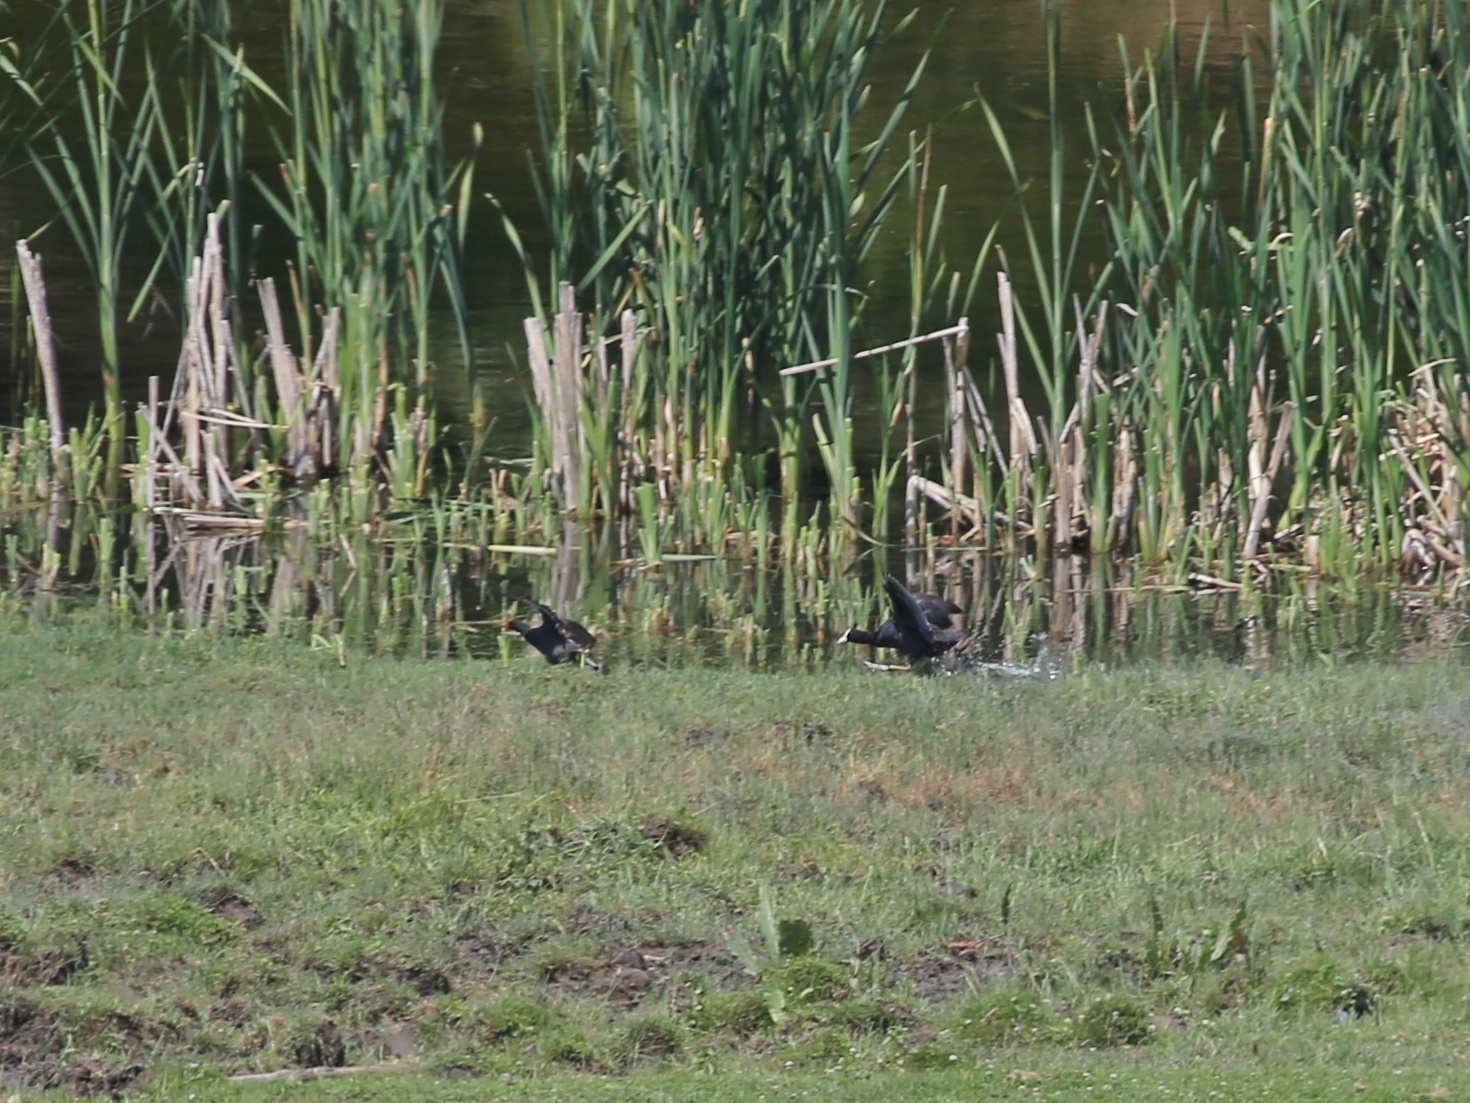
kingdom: Animalia
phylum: Chordata
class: Aves
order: Gruiformes
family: Rallidae
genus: Gallinula
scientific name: Gallinula chloropus
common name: Common moorhen
